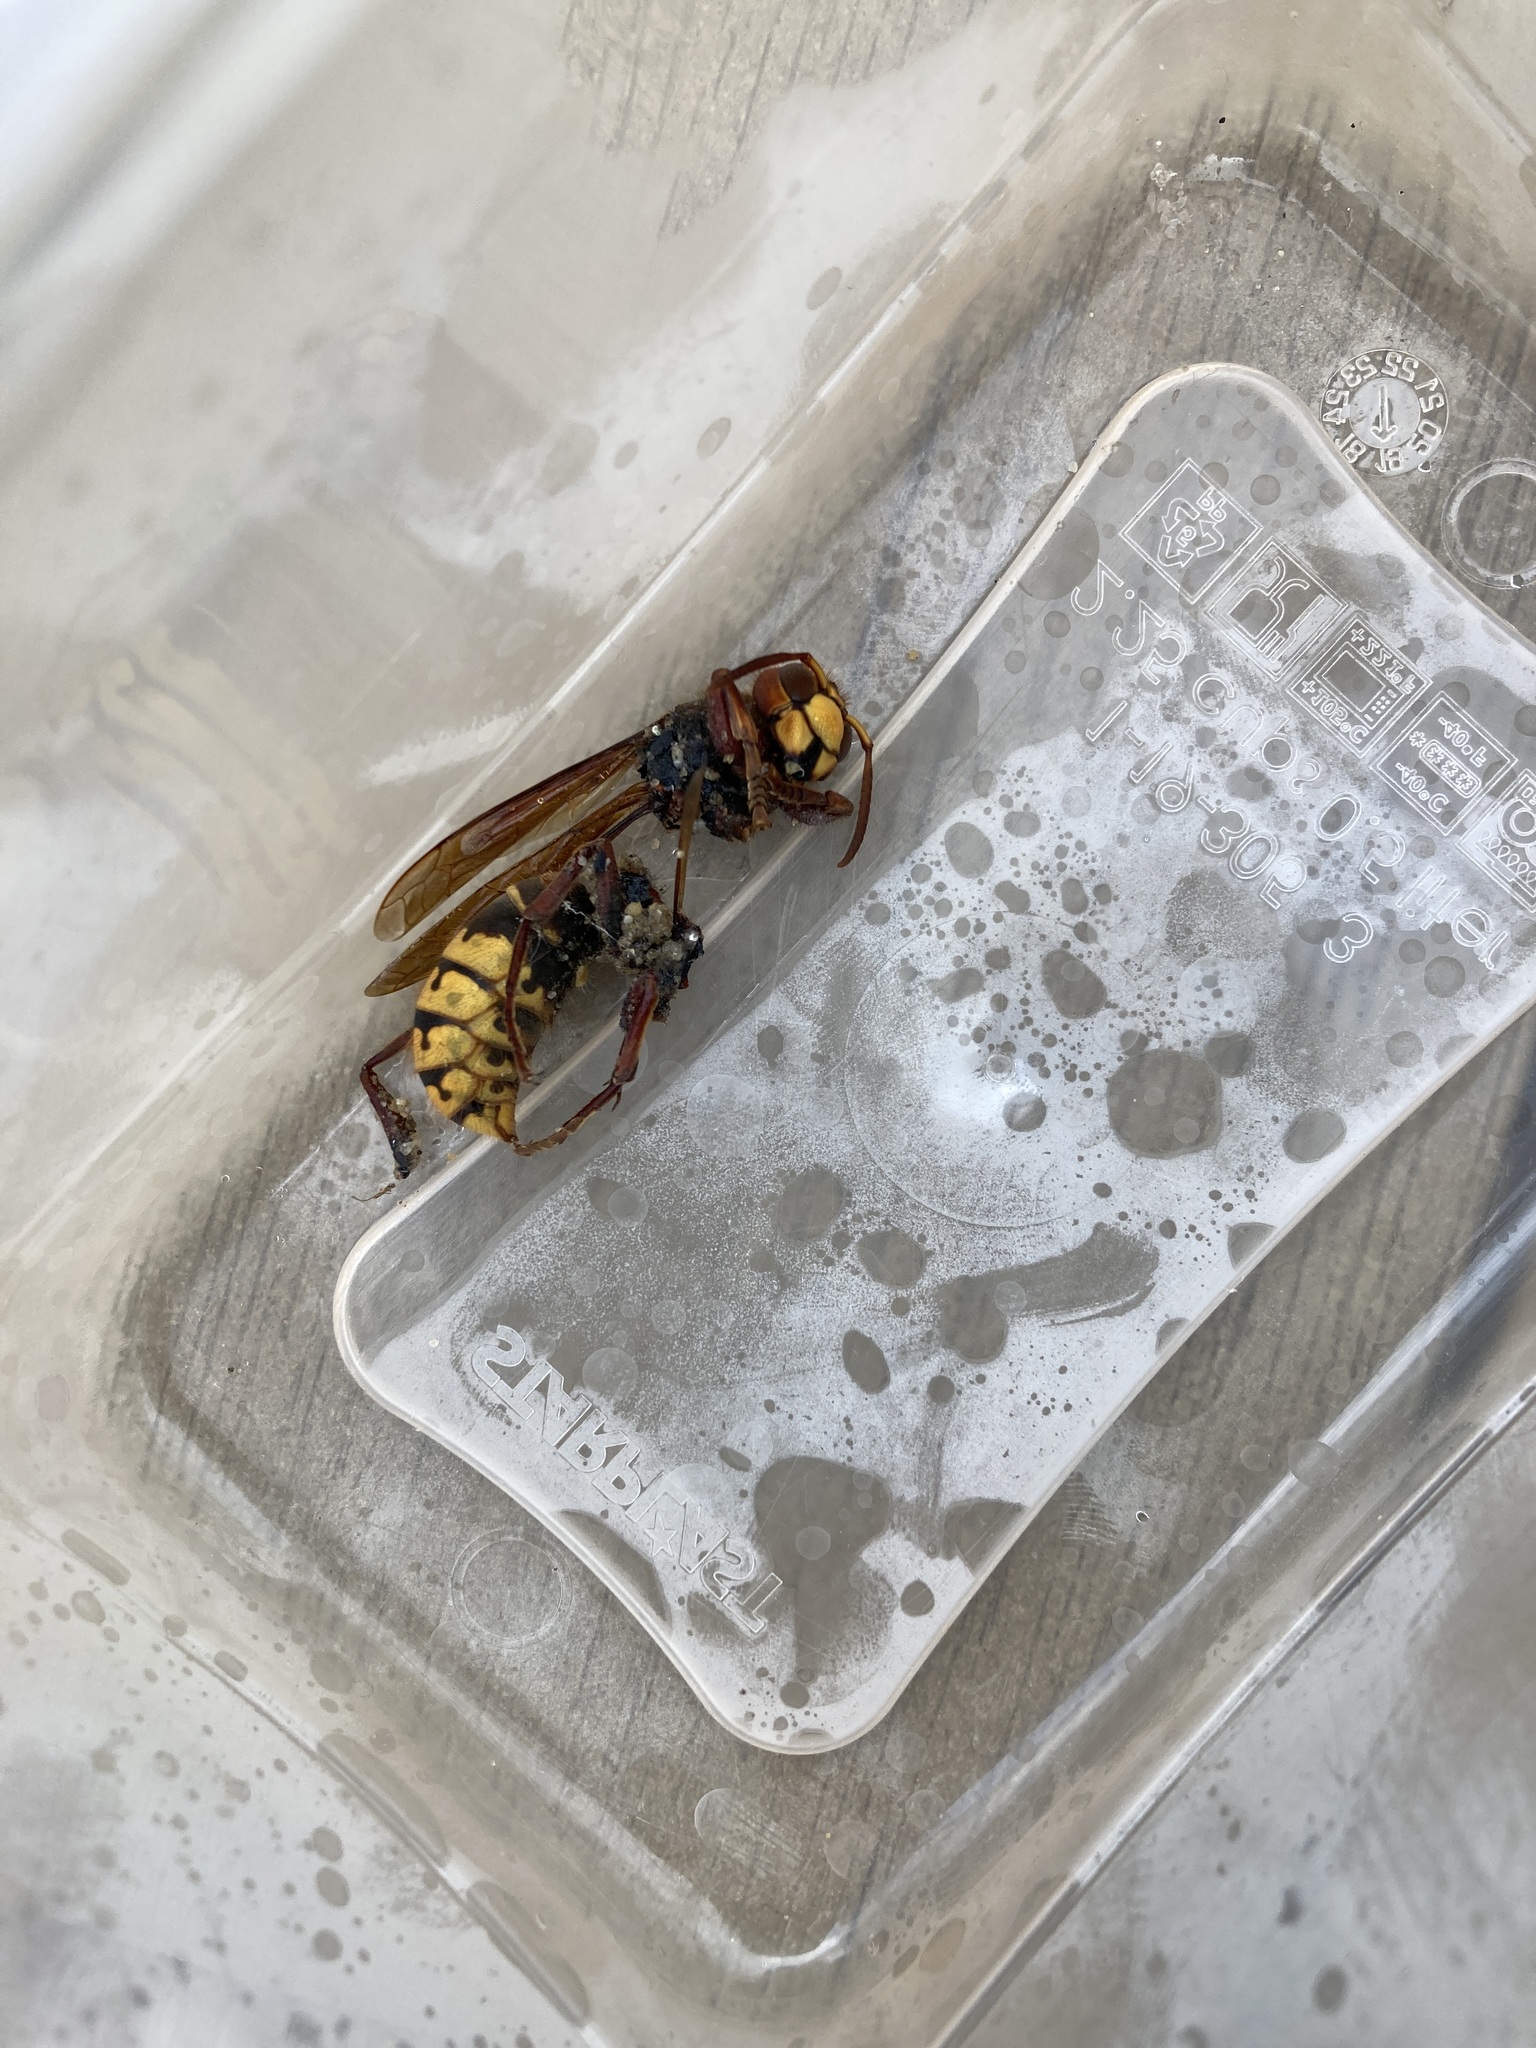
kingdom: Animalia
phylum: Arthropoda
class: Insecta
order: Hymenoptera
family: Vespidae
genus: Vespa
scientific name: Vespa crabro
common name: Hornet
